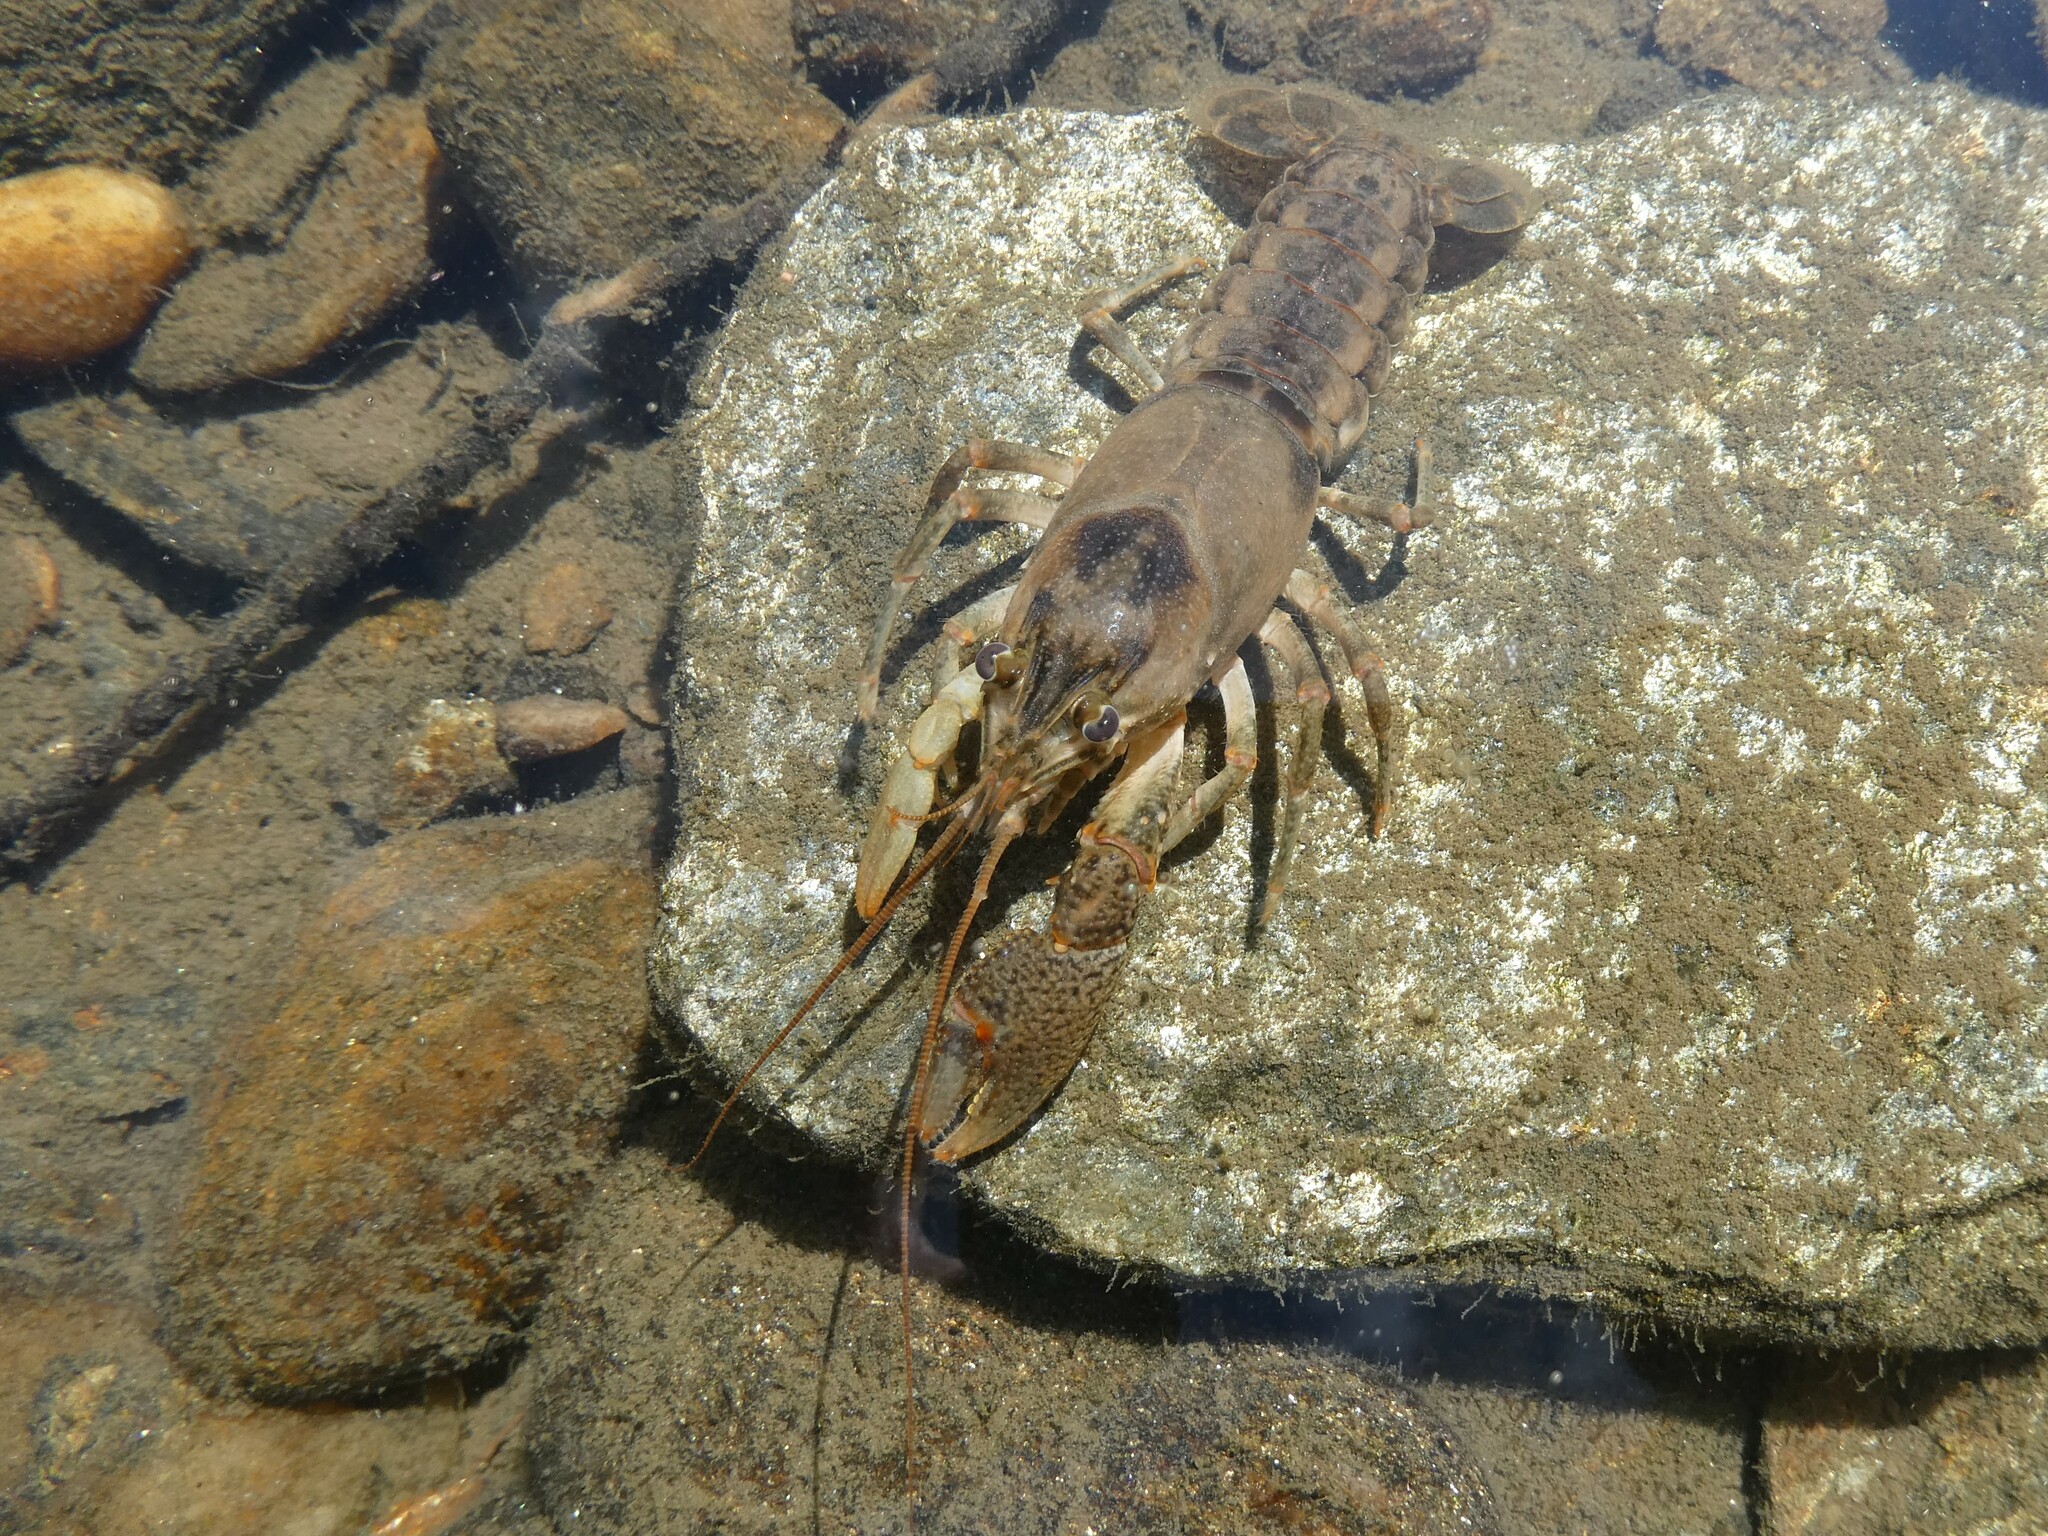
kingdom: Animalia
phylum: Arthropoda
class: Malacostraca
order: Decapoda
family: Cambaridae
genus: Faxonius
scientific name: Faxonius propinquus
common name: Northern clearwater crayfish
